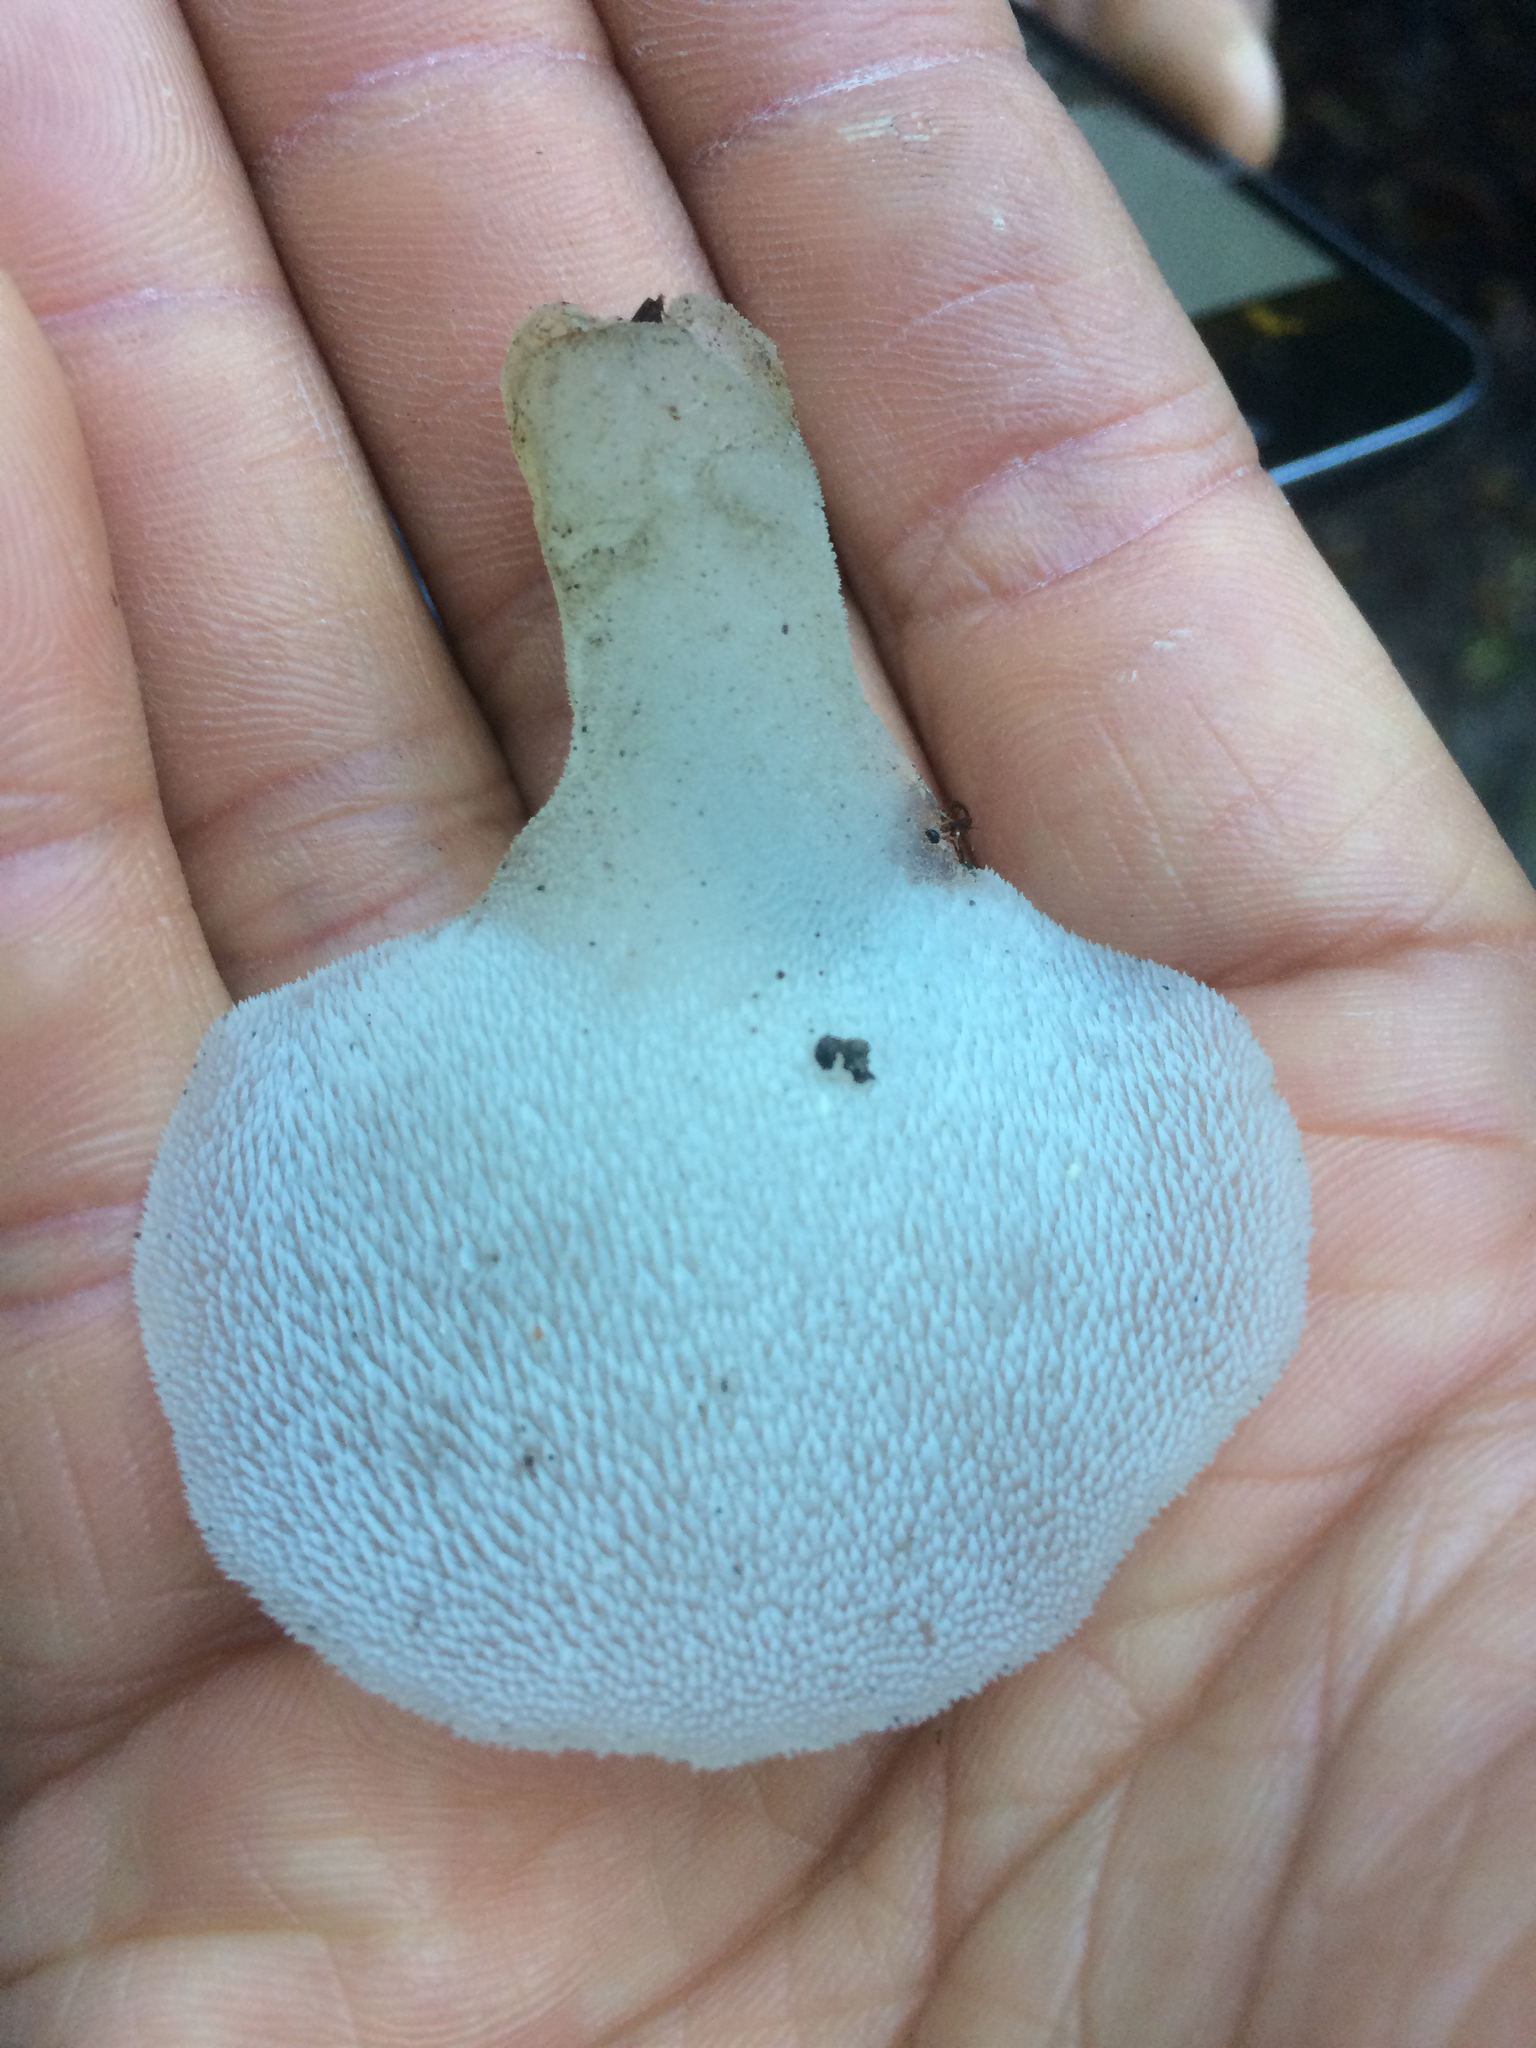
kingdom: Fungi
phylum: Basidiomycota
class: Agaricomycetes
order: Auriculariales
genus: Pseudohydnum
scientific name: Pseudohydnum gelatinosum
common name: Jelly tongue
